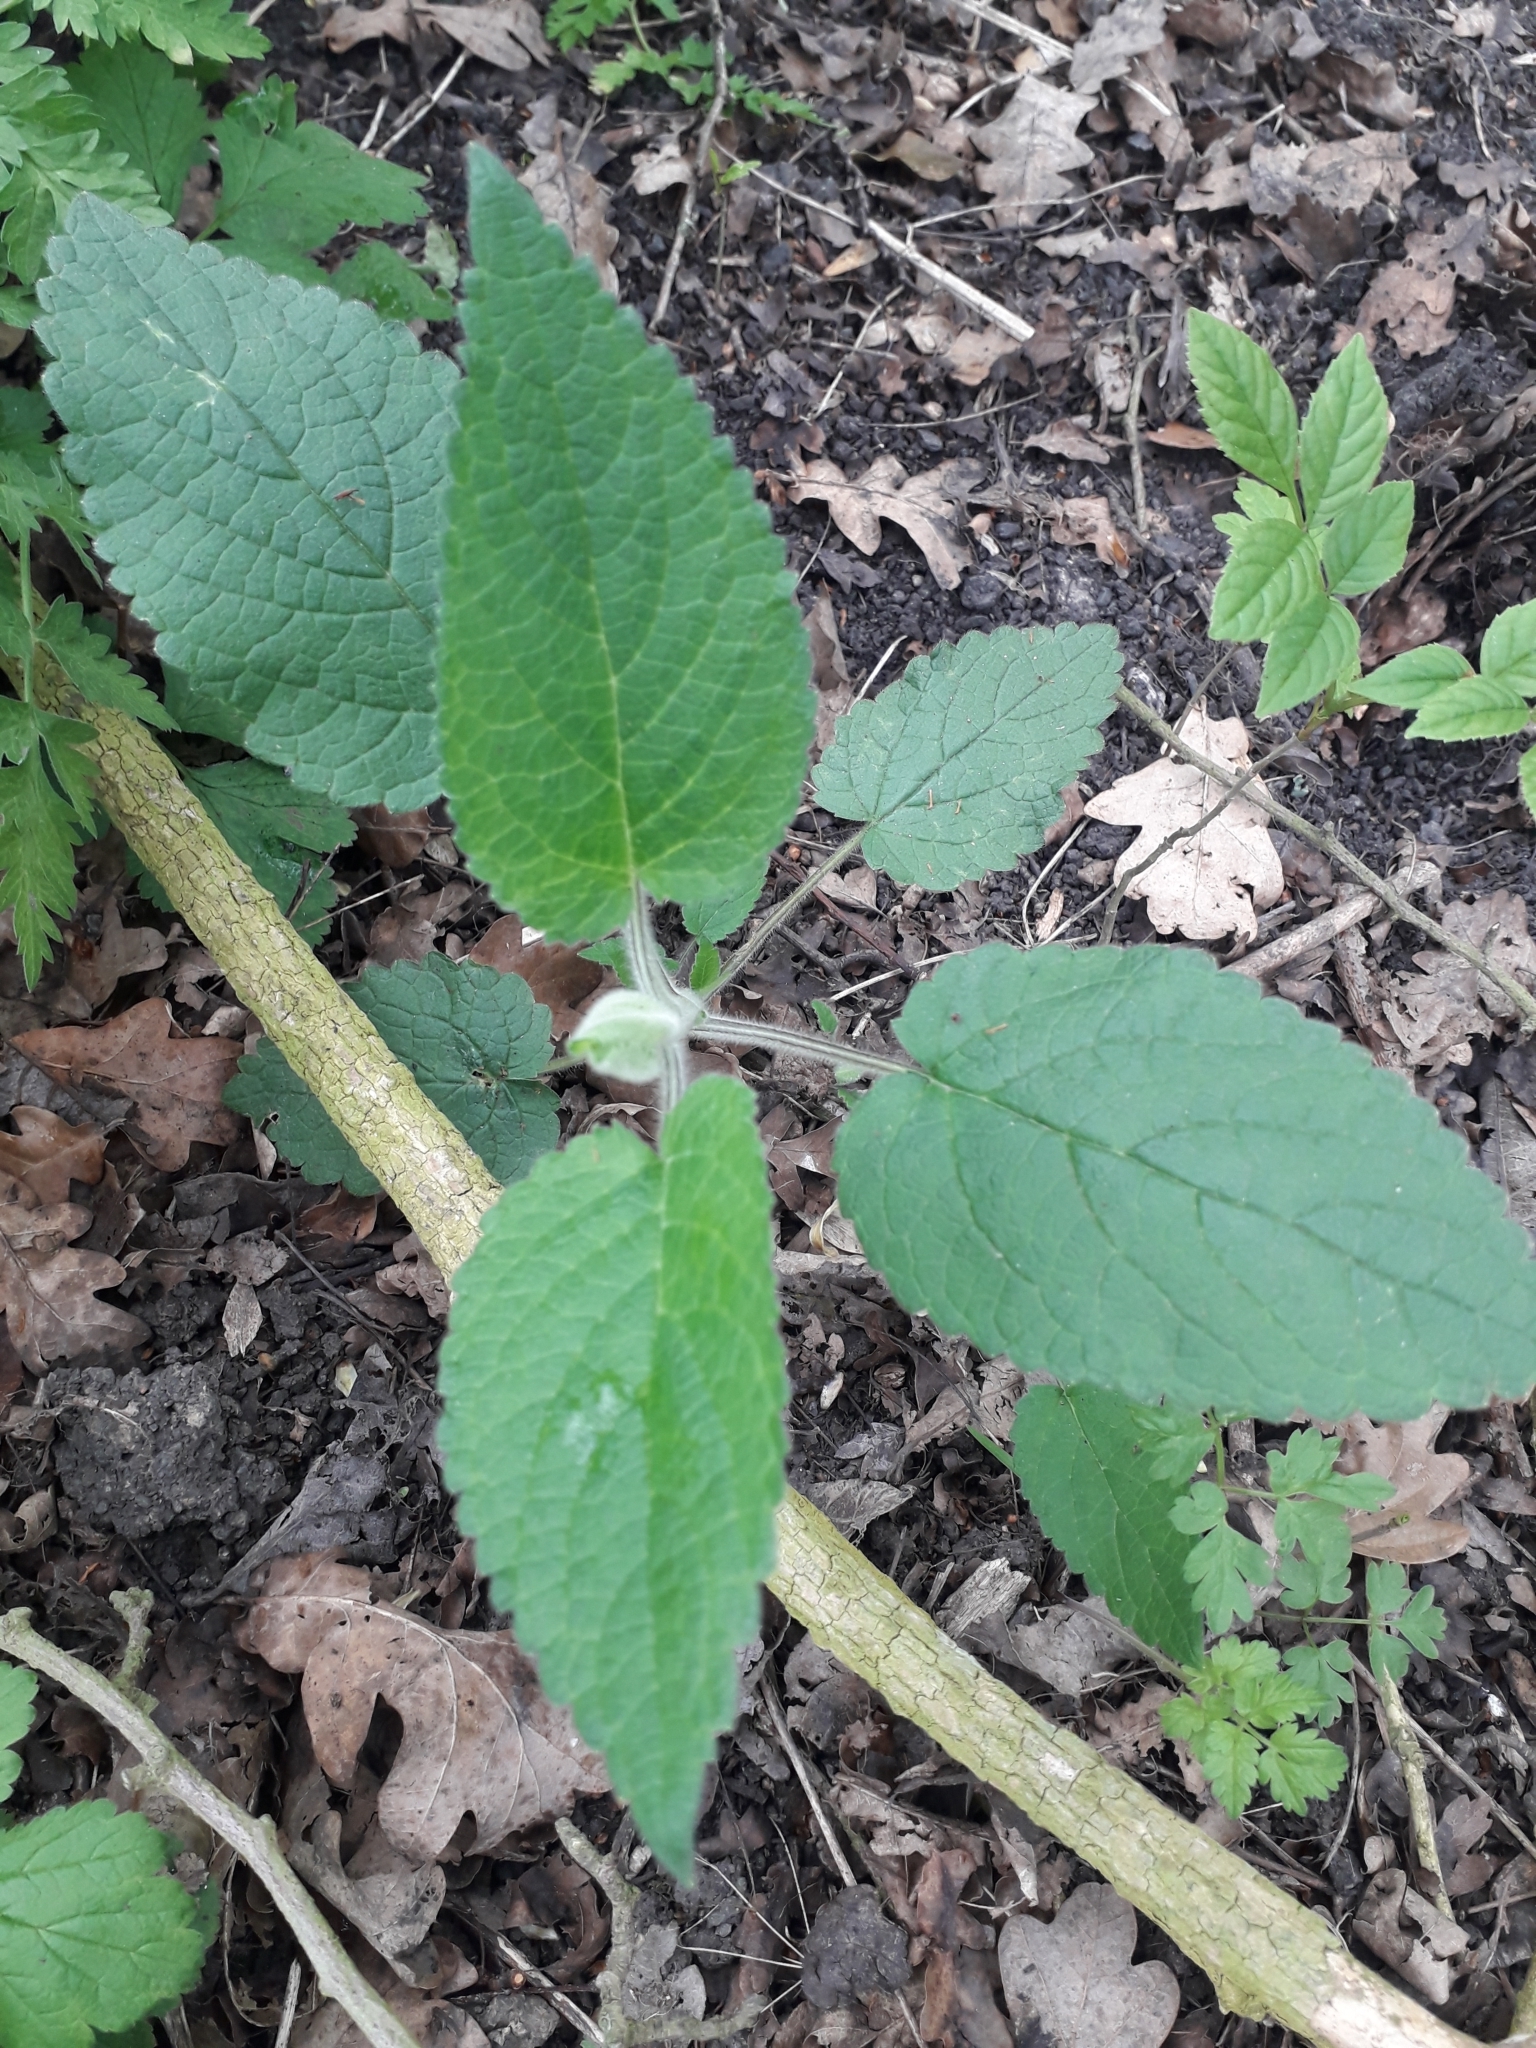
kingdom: Plantae
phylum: Tracheophyta
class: Magnoliopsida
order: Lamiales
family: Lamiaceae
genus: Stachys
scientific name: Stachys sylvatica
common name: Hedge woundwort
